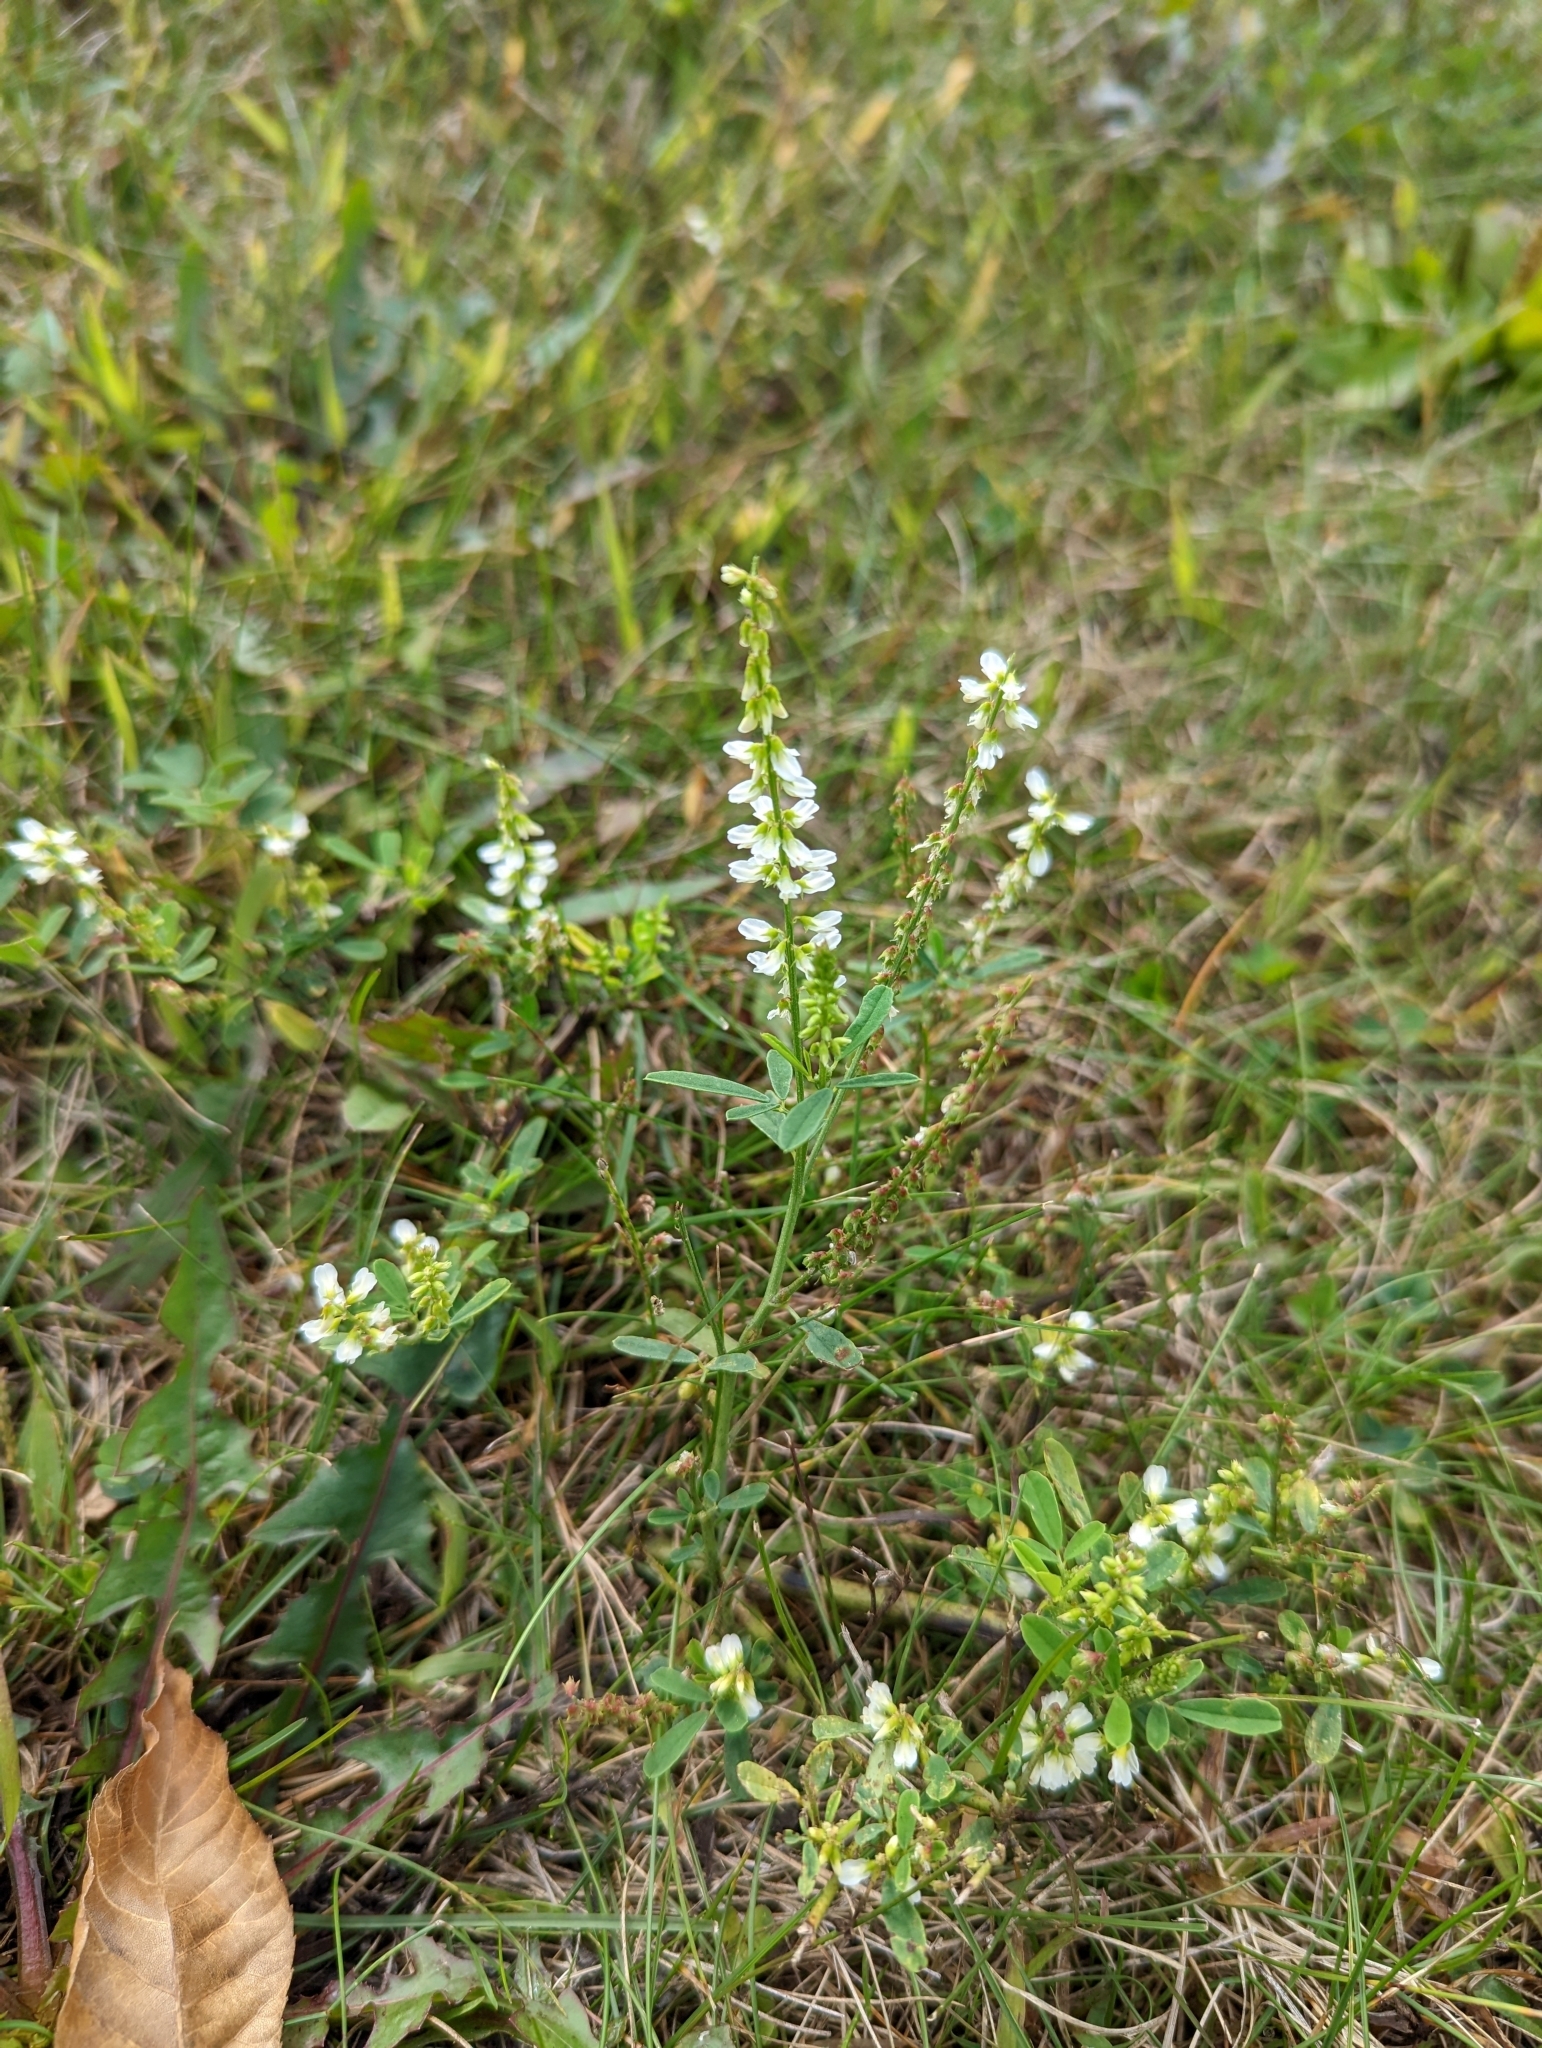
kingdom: Plantae
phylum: Tracheophyta
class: Magnoliopsida
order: Fabales
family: Fabaceae
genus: Melilotus
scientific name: Melilotus albus
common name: White melilot
